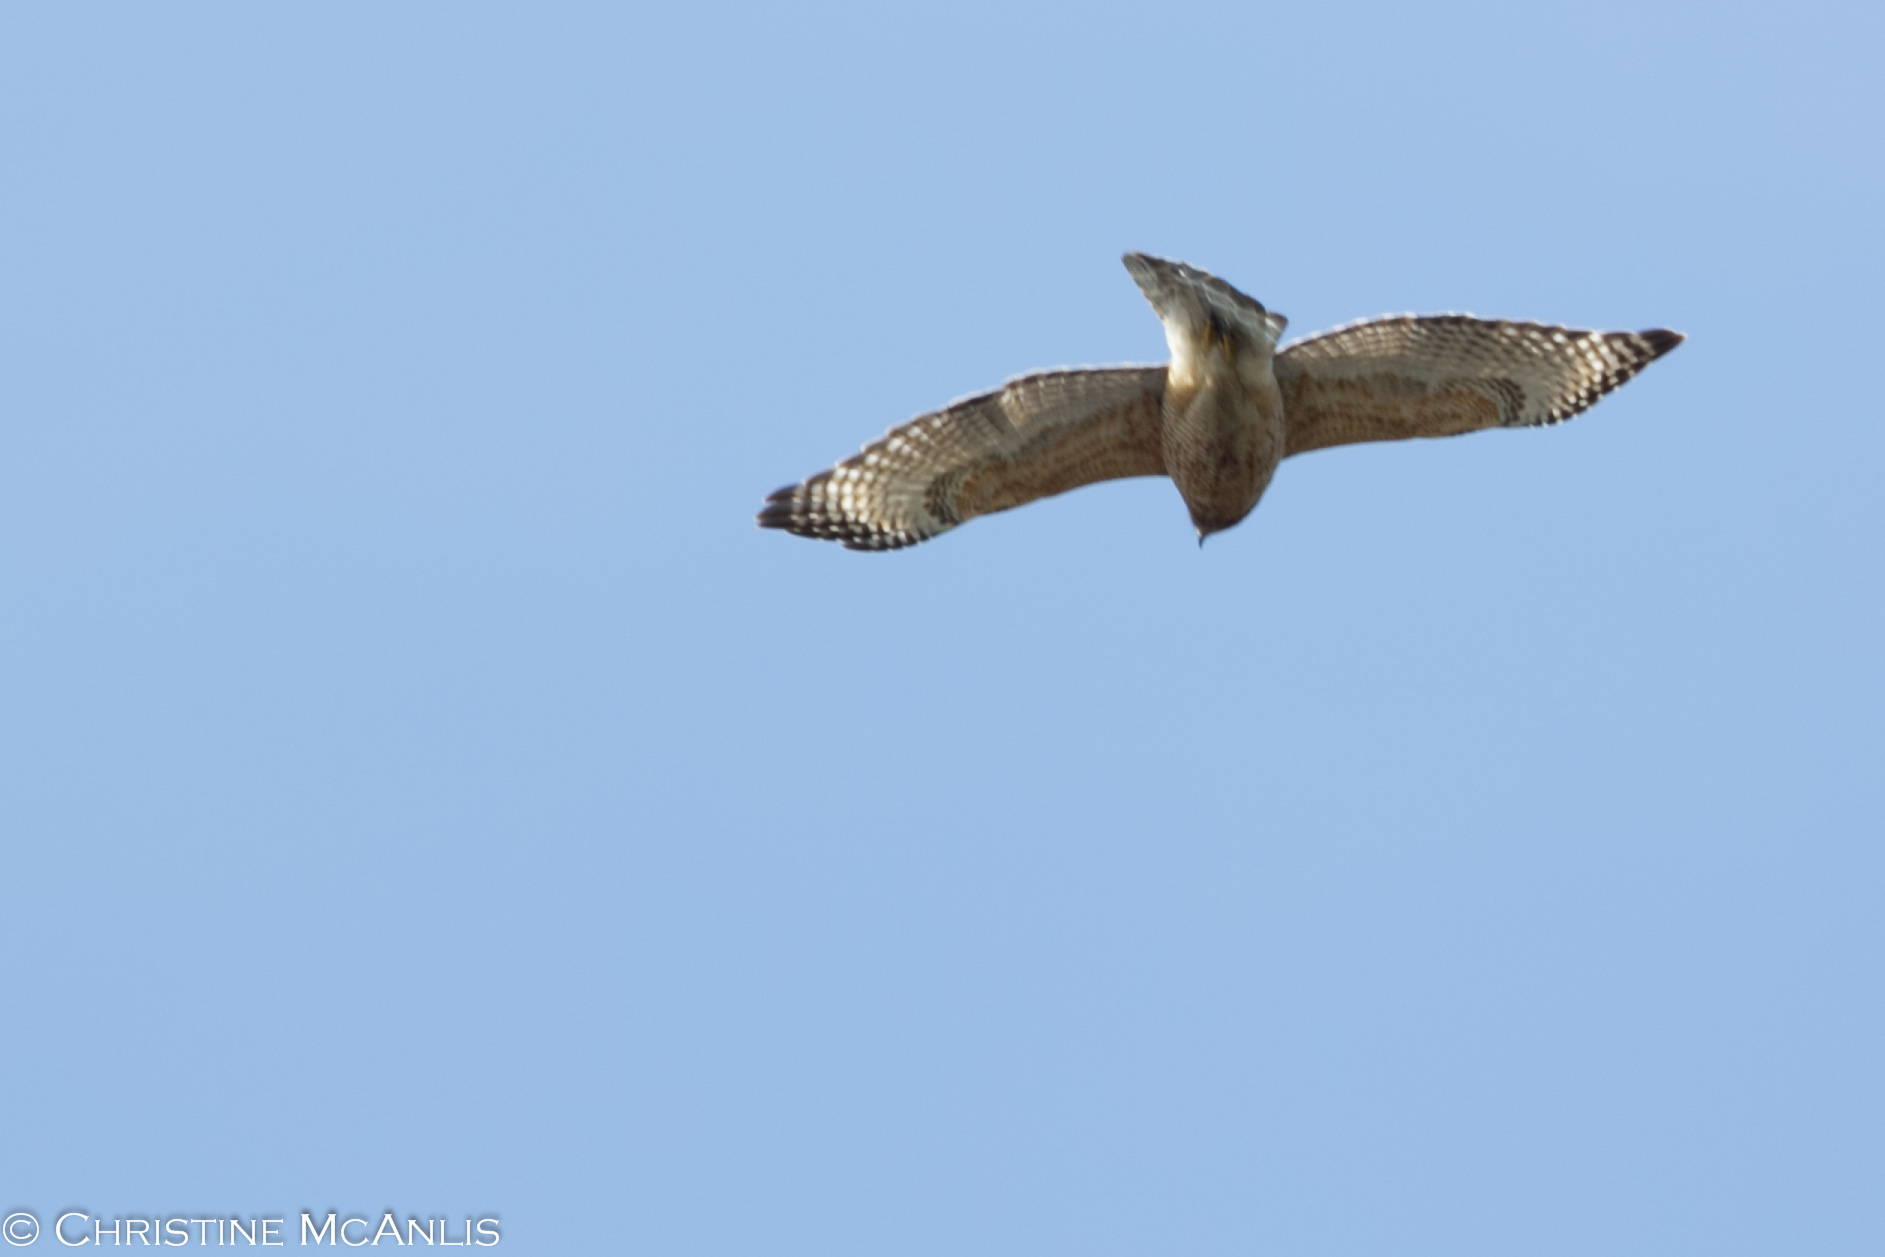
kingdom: Animalia
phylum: Chordata
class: Aves
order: Accipitriformes
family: Accipitridae
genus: Buteo
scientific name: Buteo lineatus
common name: Red-shouldered hawk
